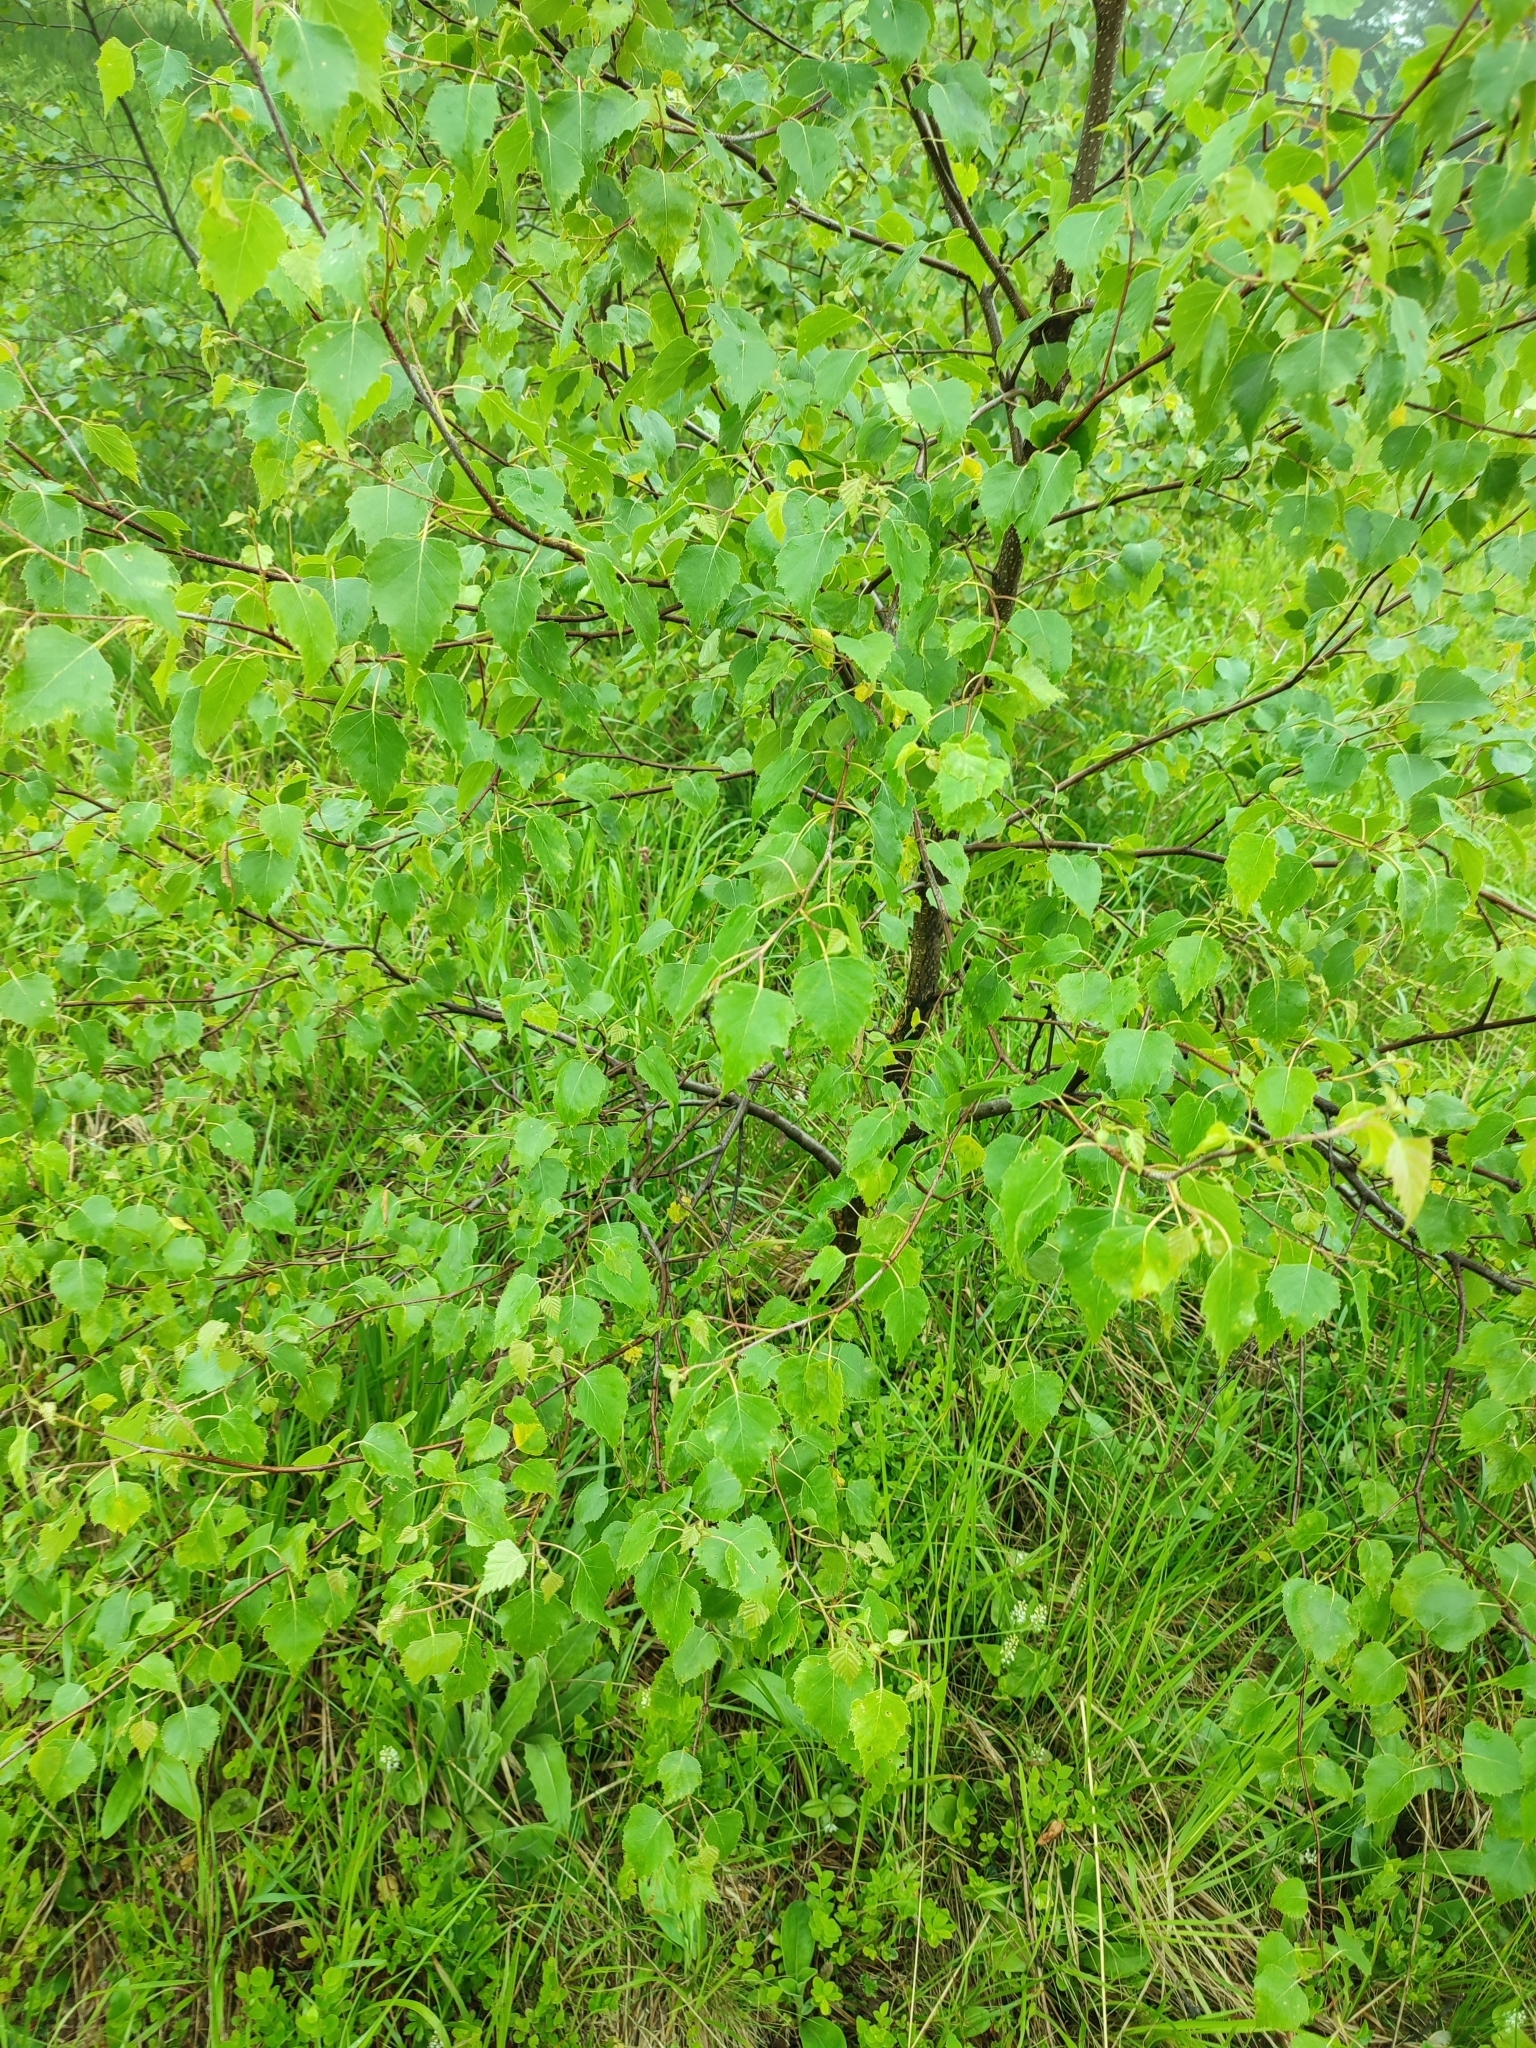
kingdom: Plantae
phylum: Tracheophyta
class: Magnoliopsida
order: Fagales
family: Betulaceae
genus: Betula
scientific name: Betula pendula
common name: Silver birch
